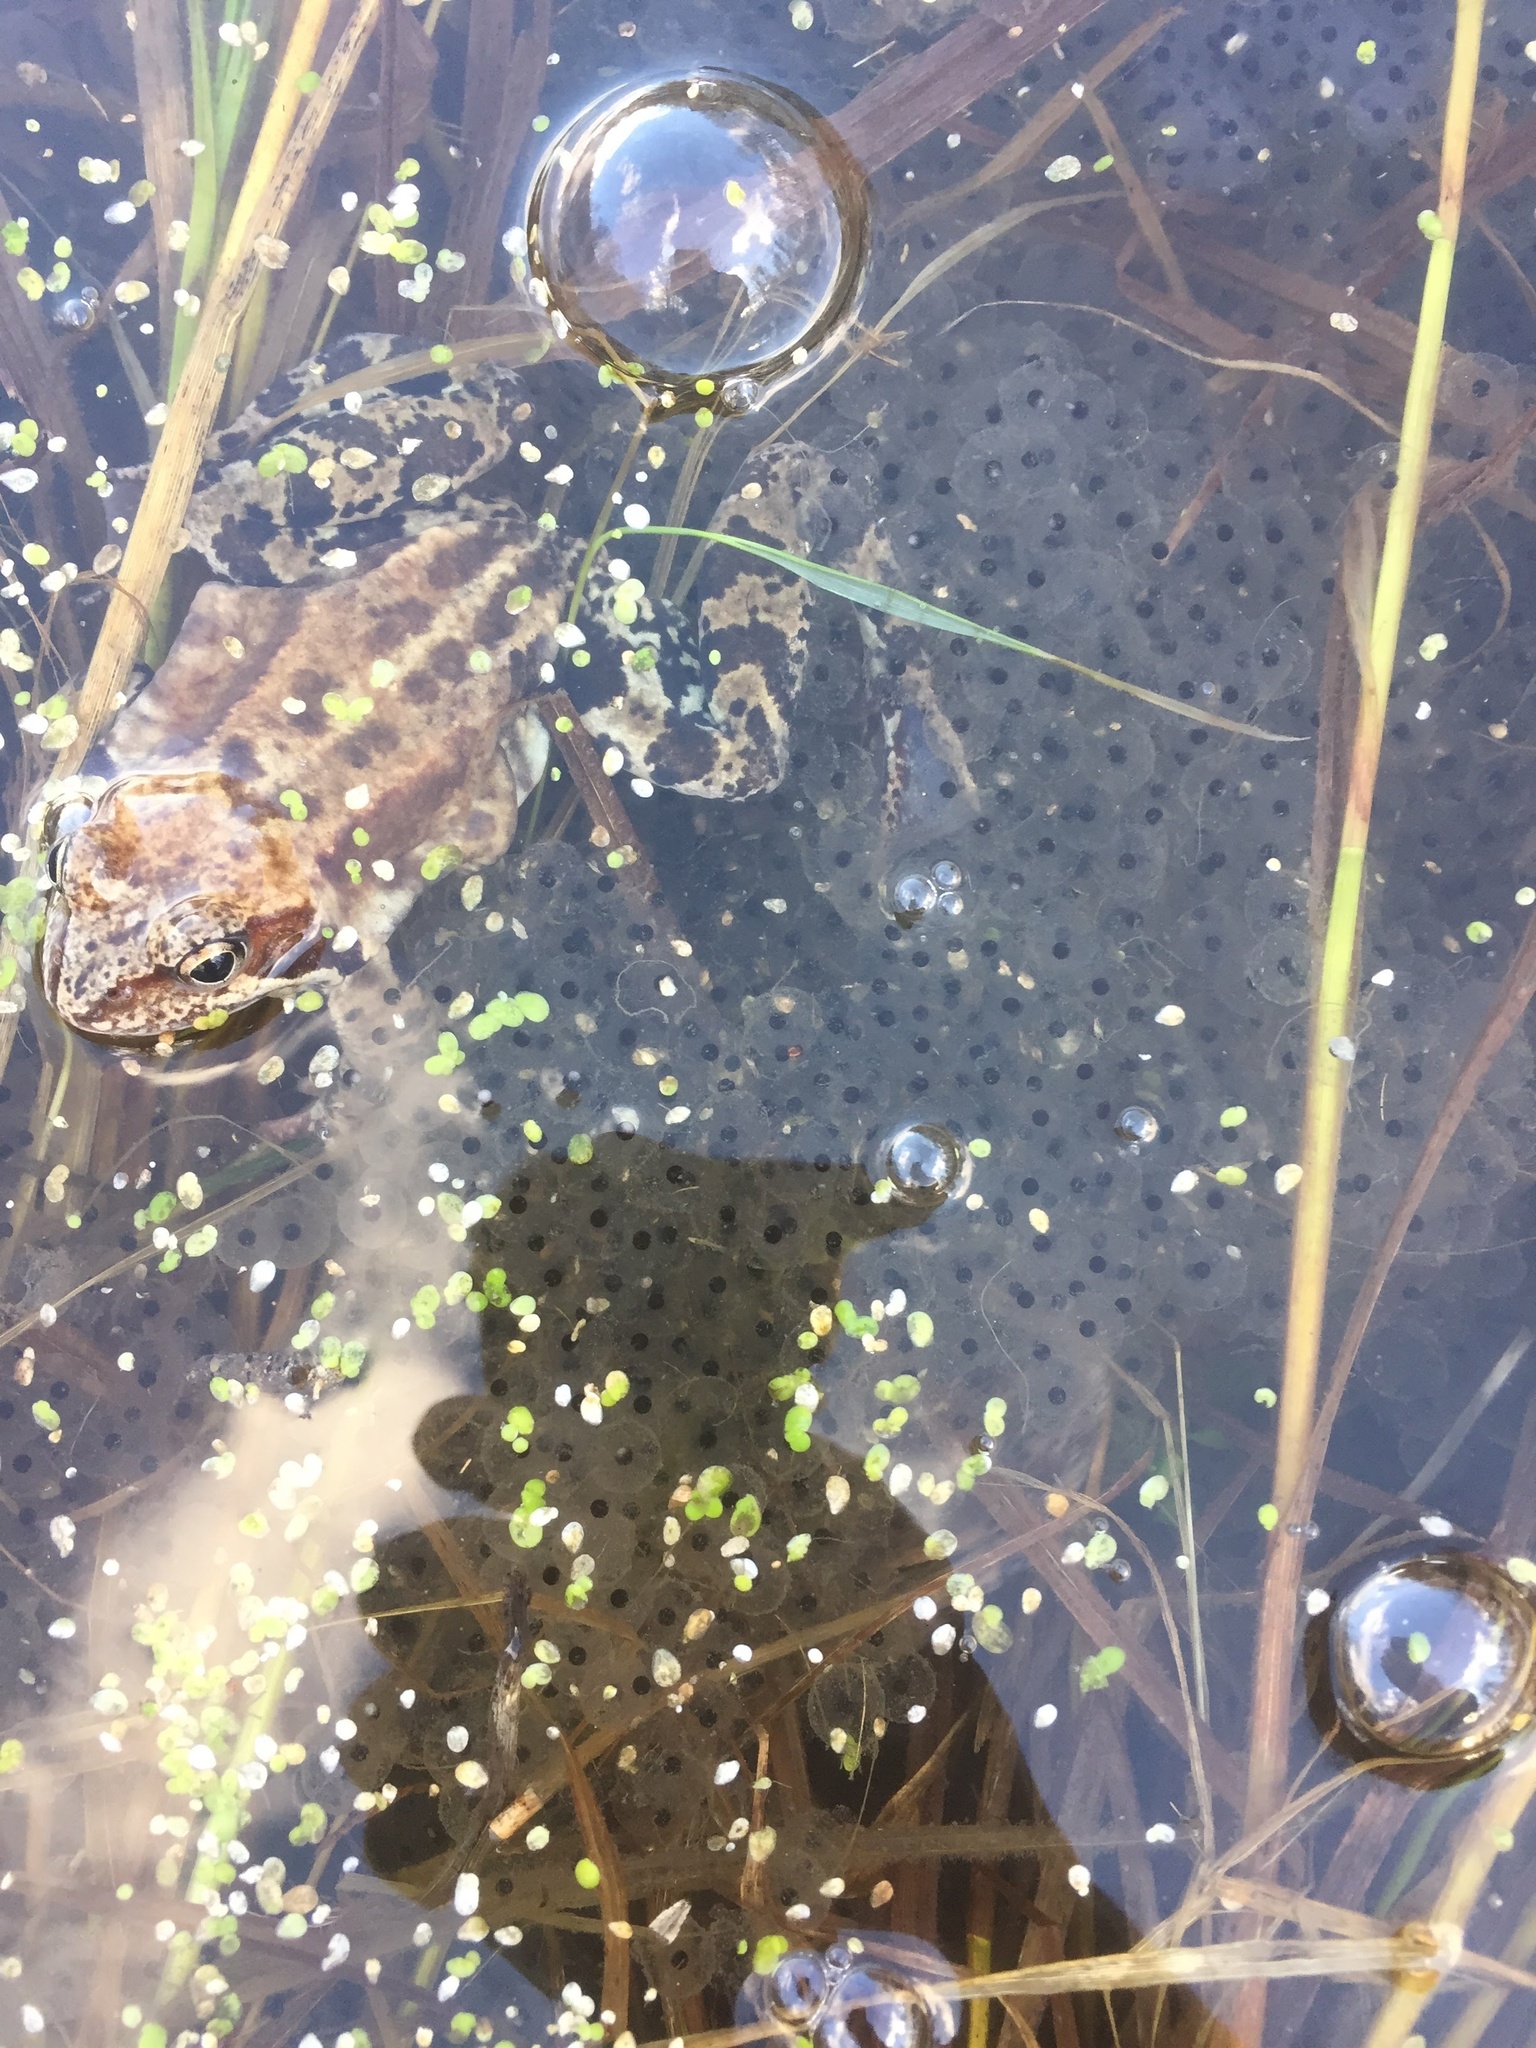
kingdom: Animalia
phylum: Chordata
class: Amphibia
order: Anura
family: Ranidae
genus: Rana
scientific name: Rana temporaria
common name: Common frog
